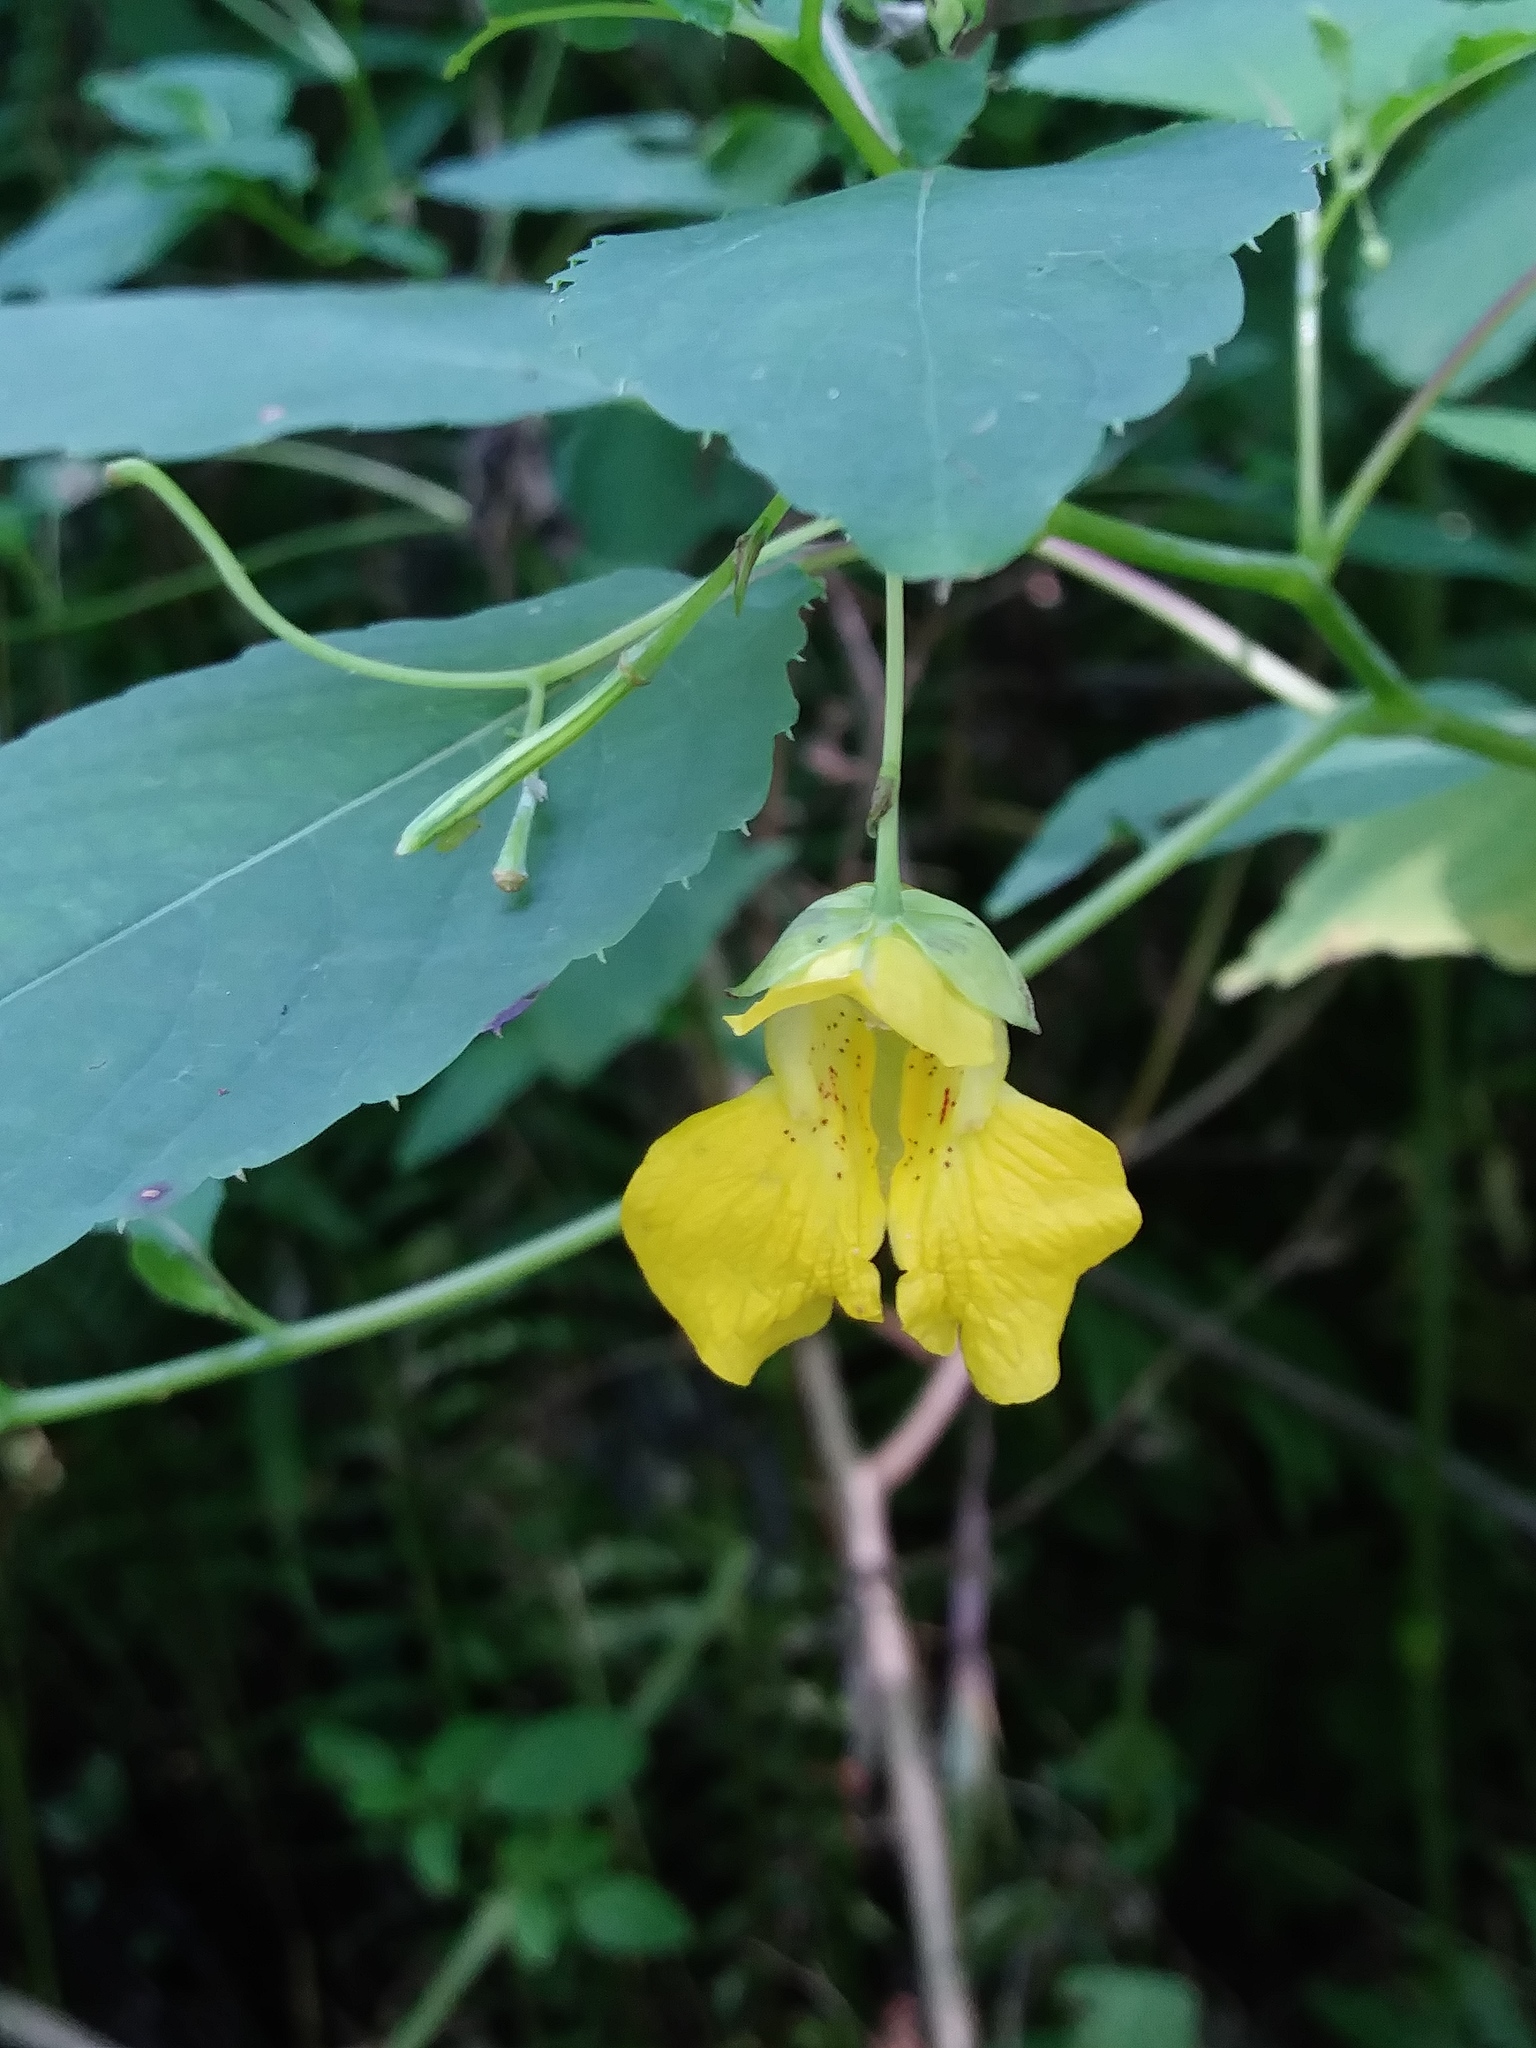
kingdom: Plantae
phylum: Tracheophyta
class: Magnoliopsida
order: Ericales
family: Balsaminaceae
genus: Impatiens
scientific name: Impatiens pallida
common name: Pale snapweed
